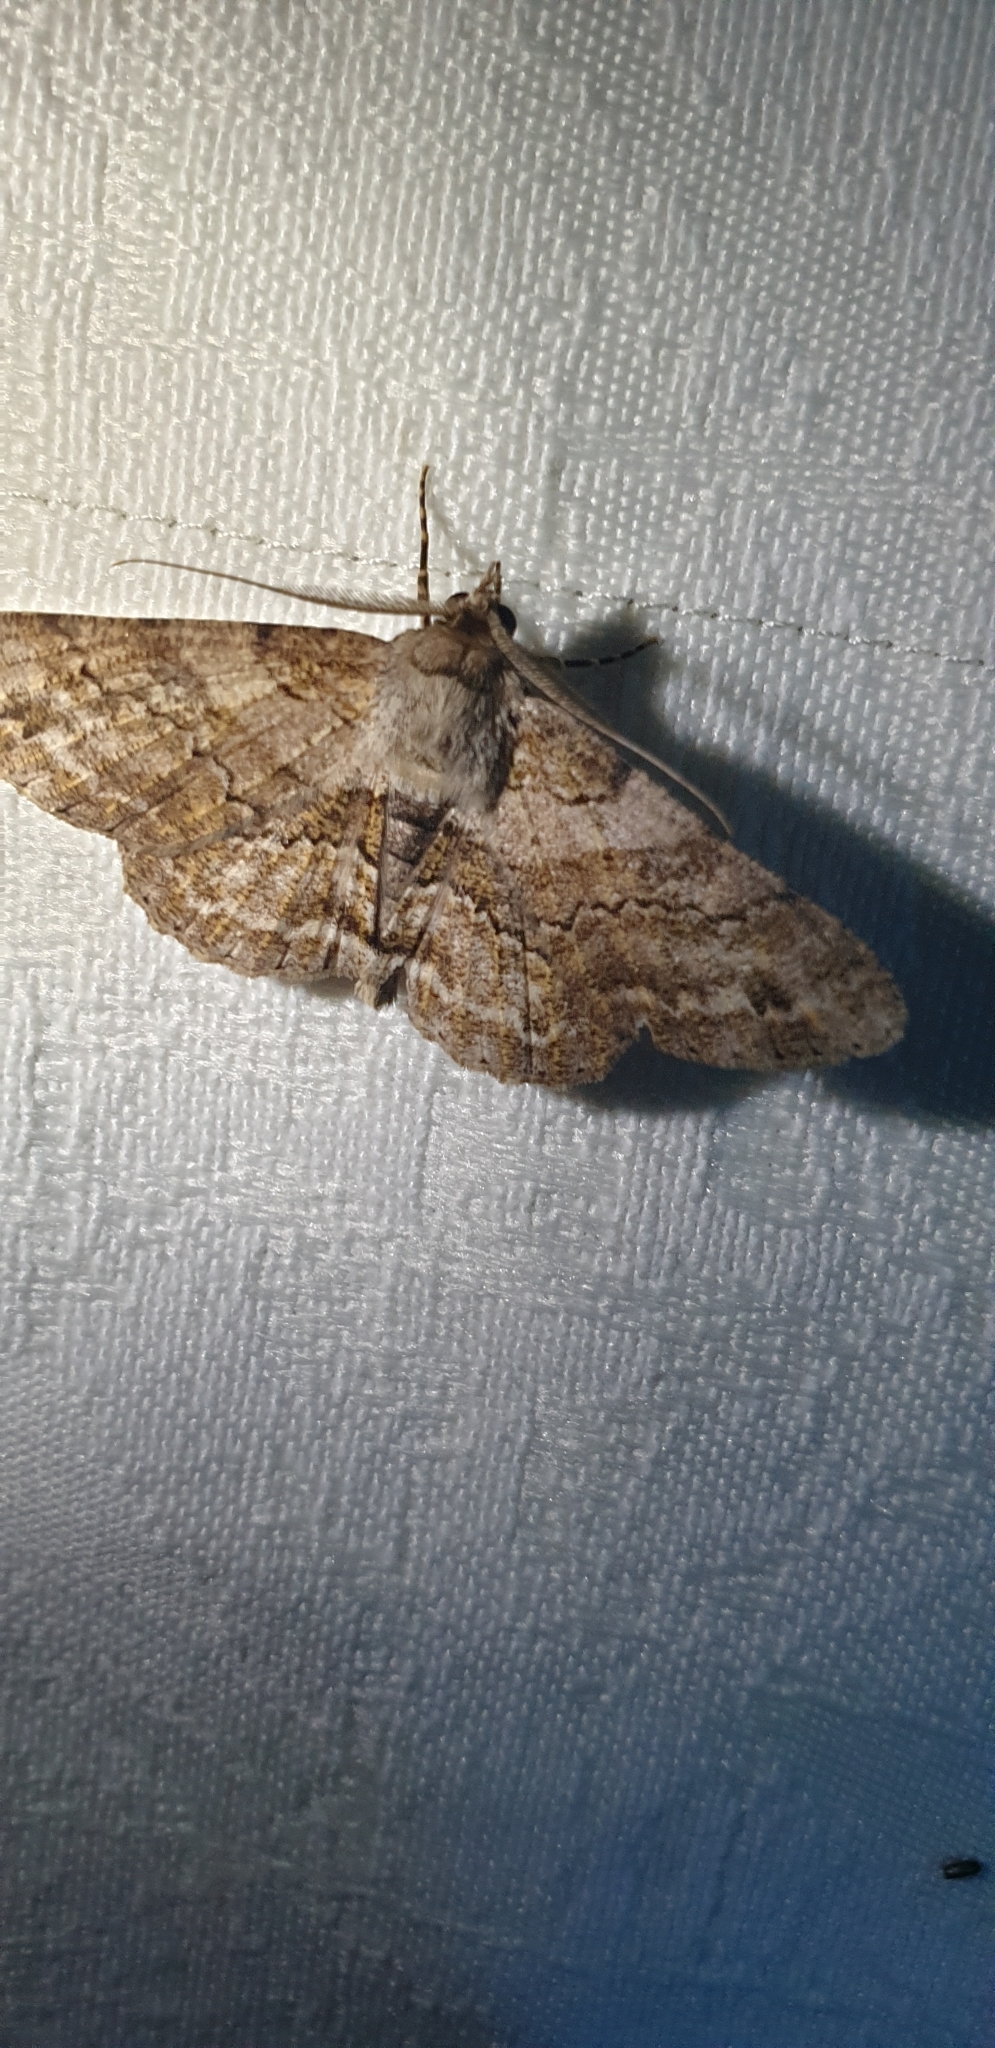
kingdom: Animalia
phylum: Arthropoda
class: Insecta
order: Lepidoptera
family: Geometridae
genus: Cleora
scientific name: Cleora repetita
